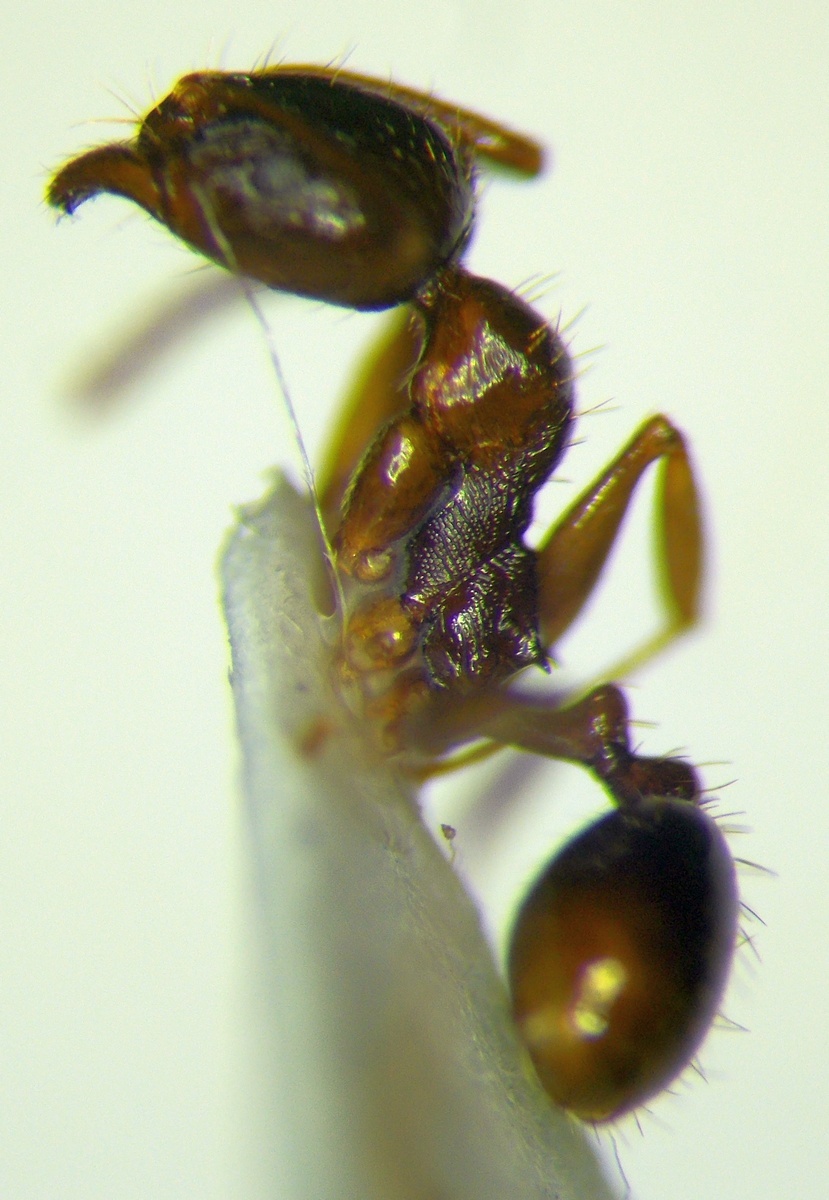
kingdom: Animalia
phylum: Arthropoda
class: Insecta
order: Hymenoptera
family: Formicidae
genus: Aphaenogaster
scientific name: Aphaenogaster subterranea
